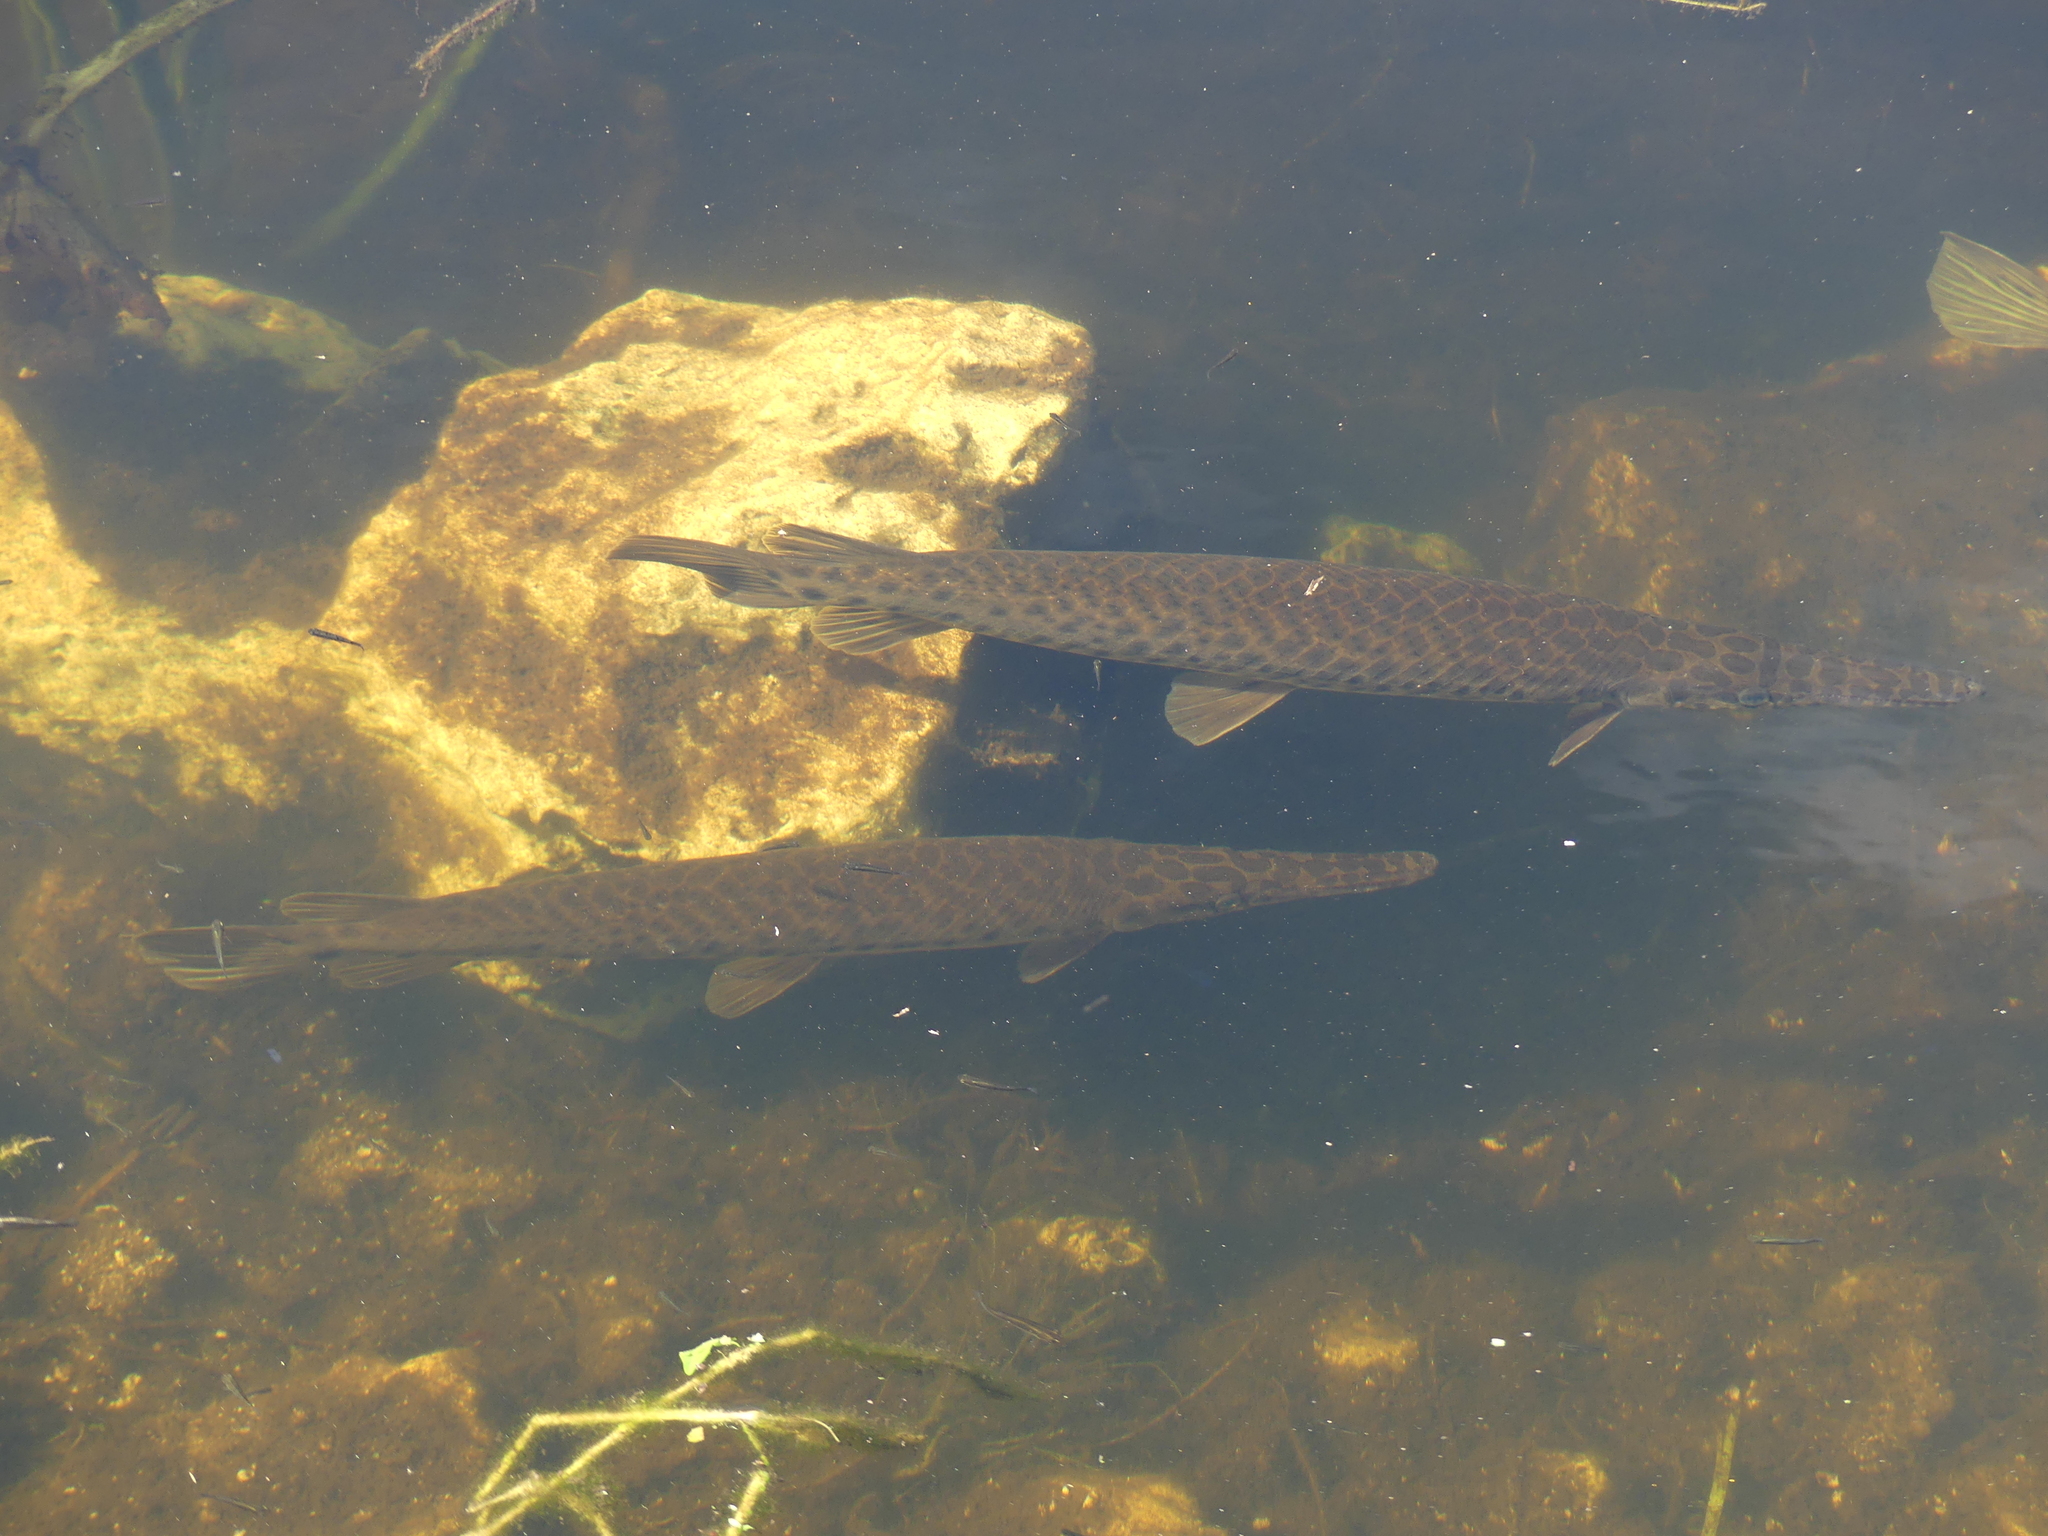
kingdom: Animalia
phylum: Chordata
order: Lepisosteiformes
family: Lepisosteidae
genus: Lepisosteus
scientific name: Lepisosteus platyrhincus
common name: Florida gar
